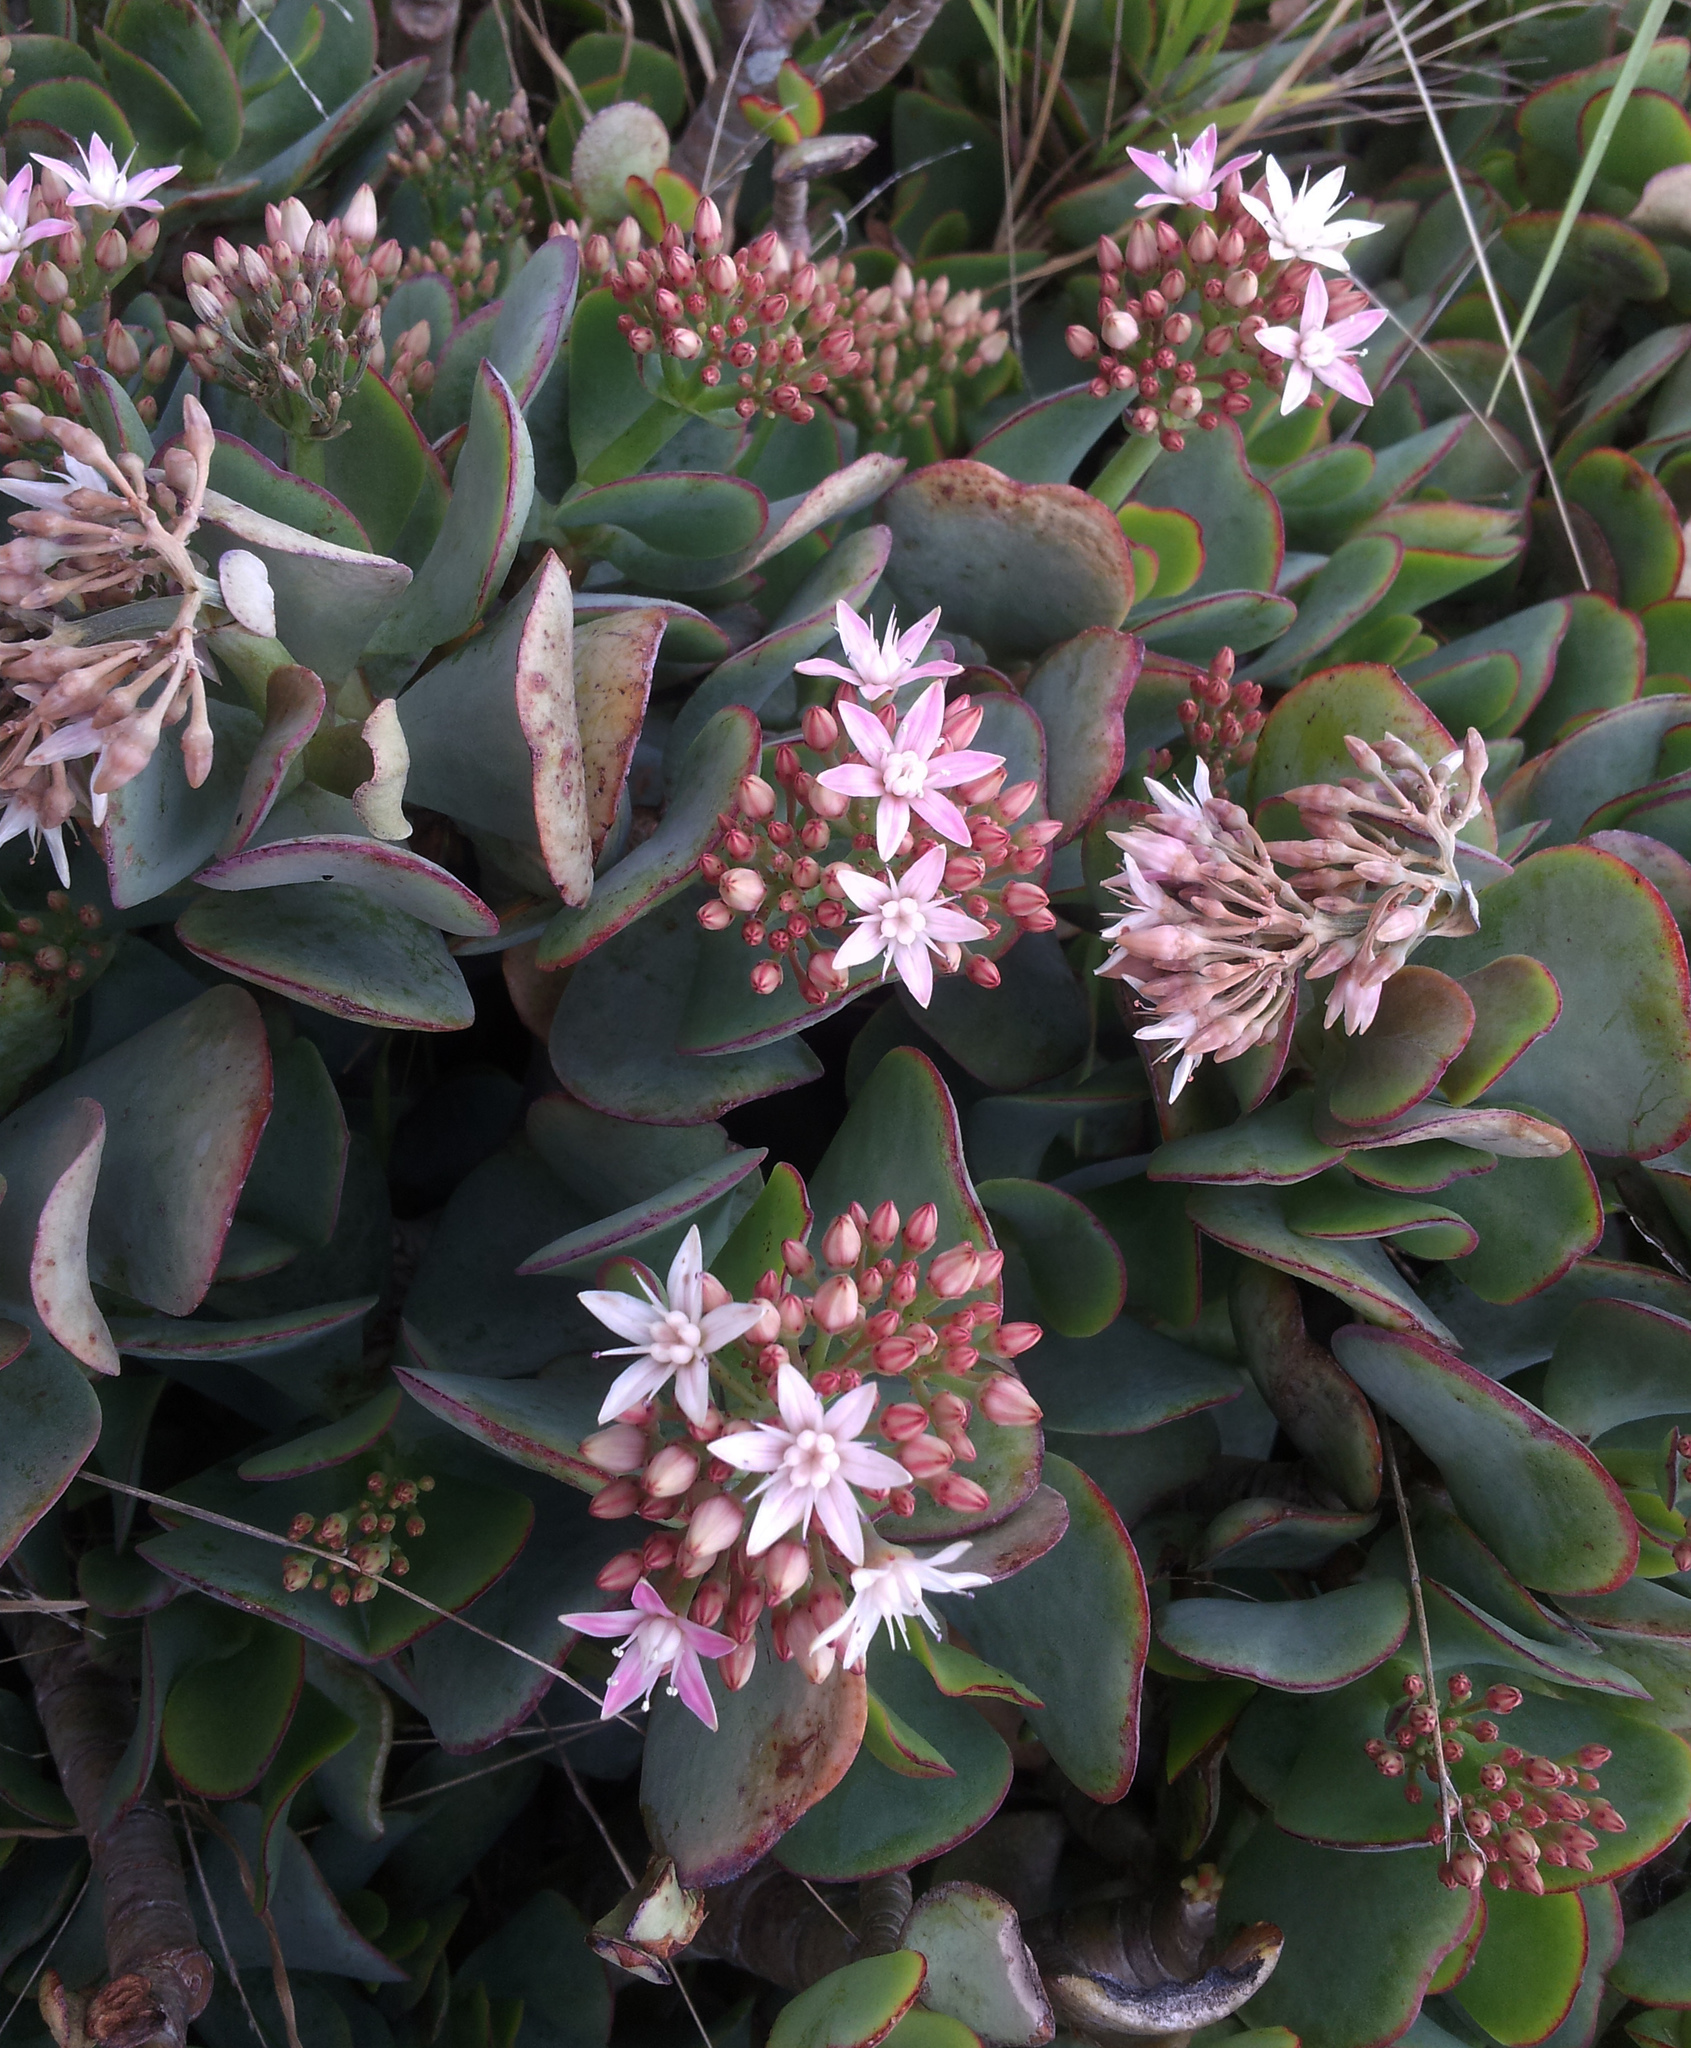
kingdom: Plantae
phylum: Tracheophyta
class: Magnoliopsida
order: Saxifragales
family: Crassulaceae
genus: Crassula
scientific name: Crassula arborescens
